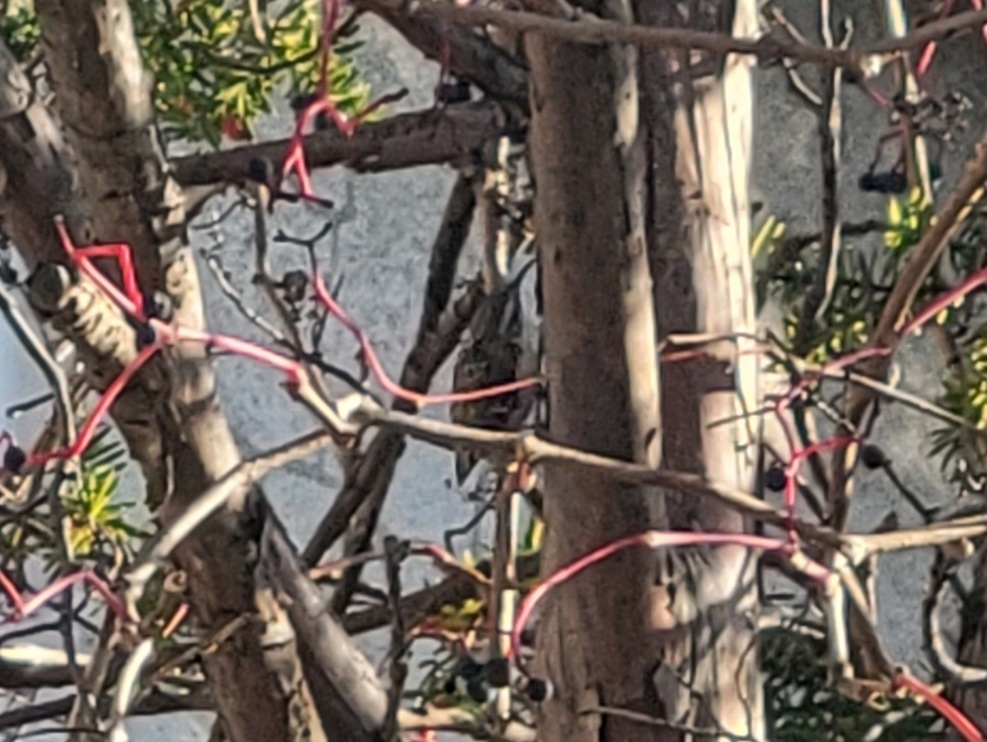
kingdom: Animalia
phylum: Chordata
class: Aves
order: Passeriformes
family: Certhiidae
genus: Certhia
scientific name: Certhia americana
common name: Brown creeper
